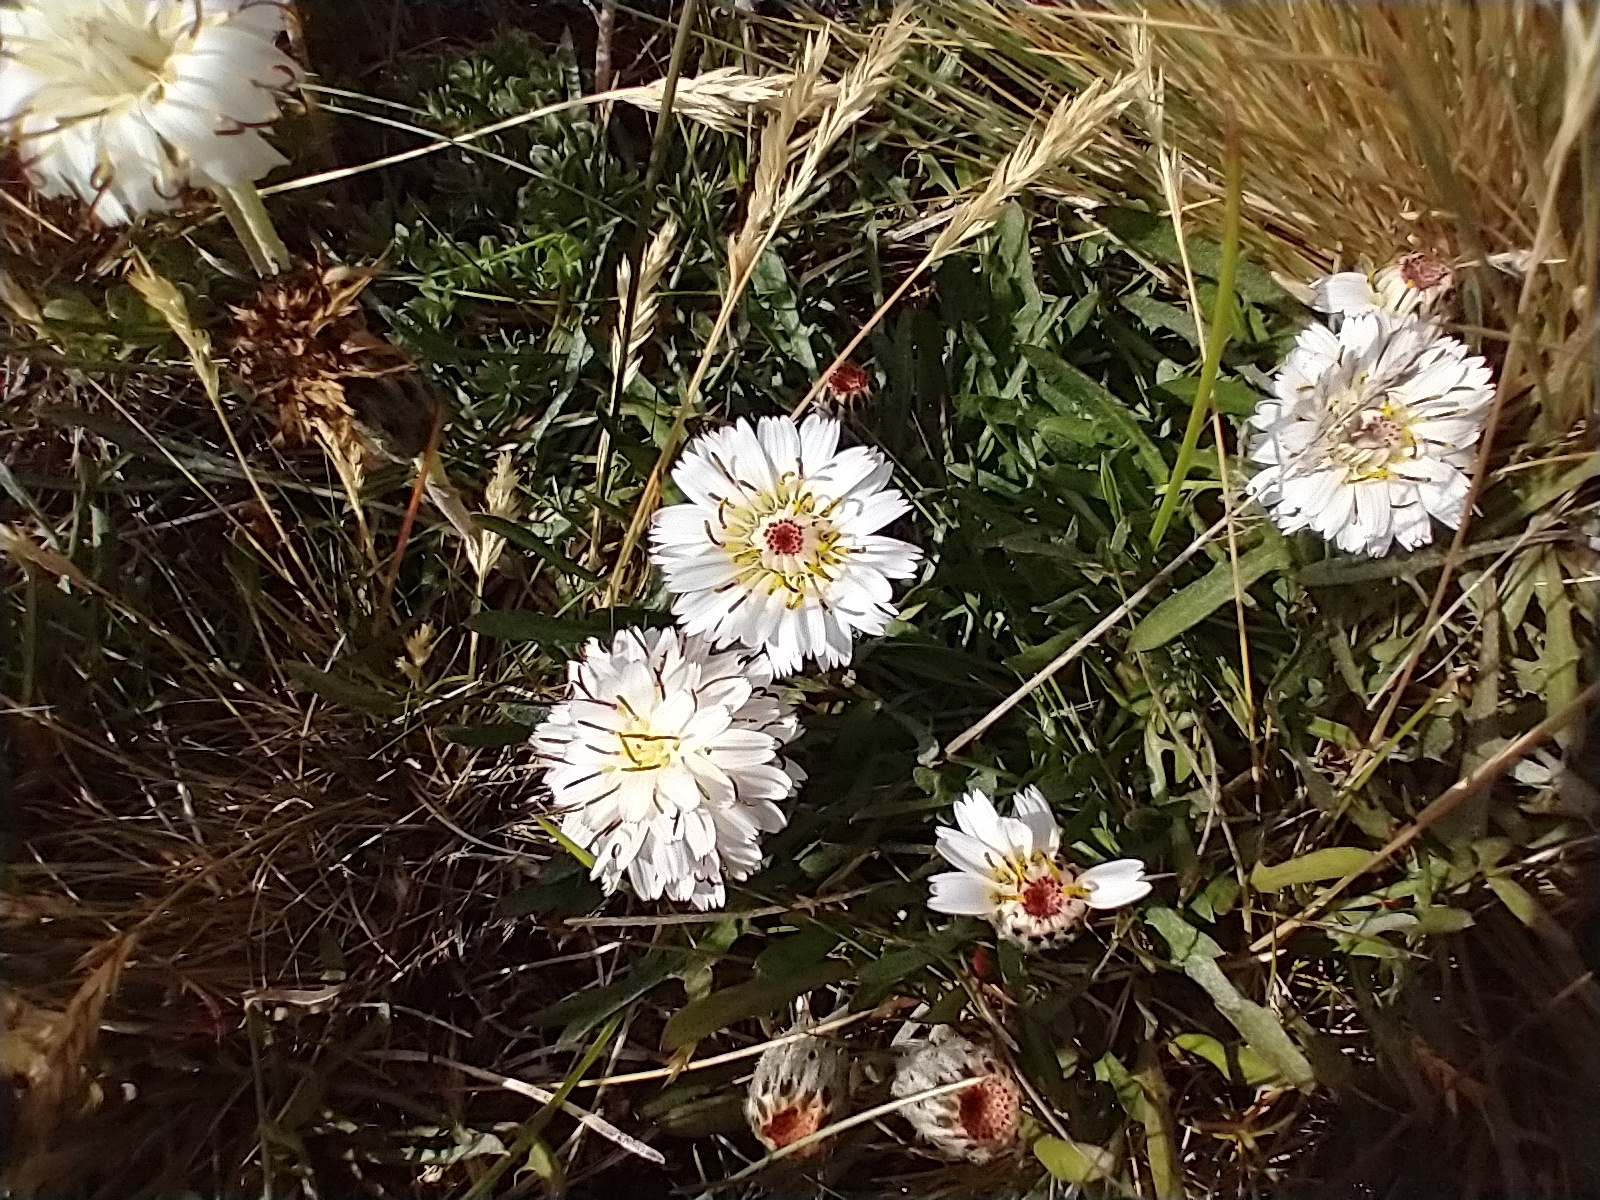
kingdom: Plantae
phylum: Tracheophyta
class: Magnoliopsida
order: Asterales
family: Asteraceae
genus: Hypochaeris
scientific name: Hypochaeris incana
